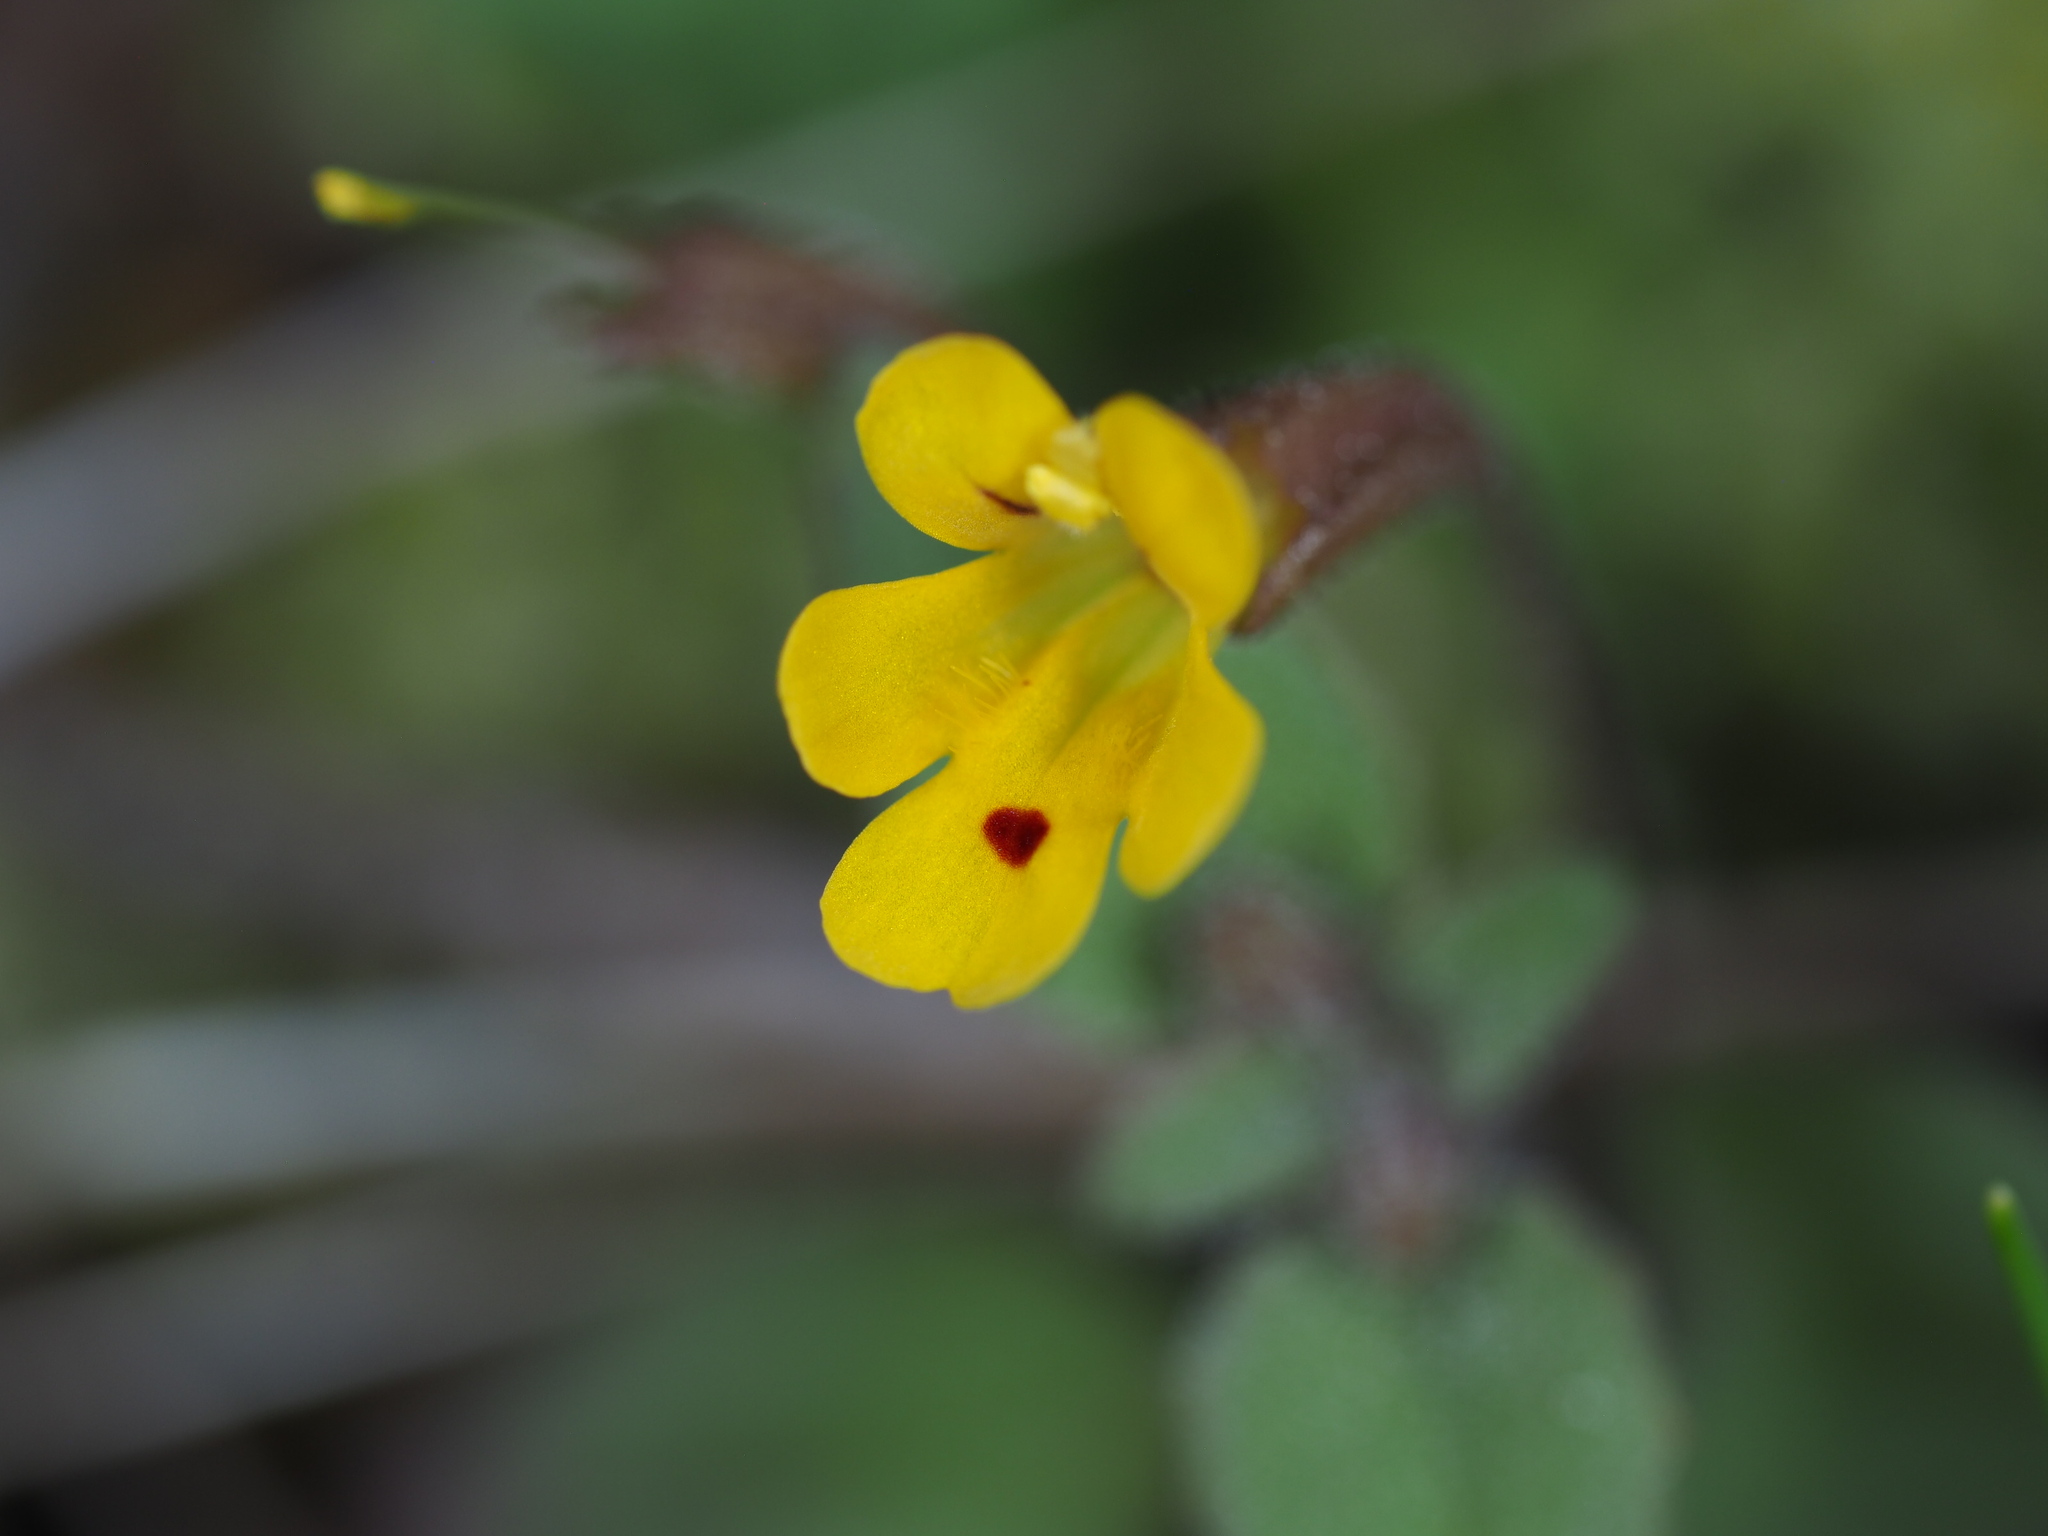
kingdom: Plantae
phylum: Tracheophyta
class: Magnoliopsida
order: Lamiales
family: Phrymaceae
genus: Erythranthe
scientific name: Erythranthe alsinoides
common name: Chickweed monkeyflower
